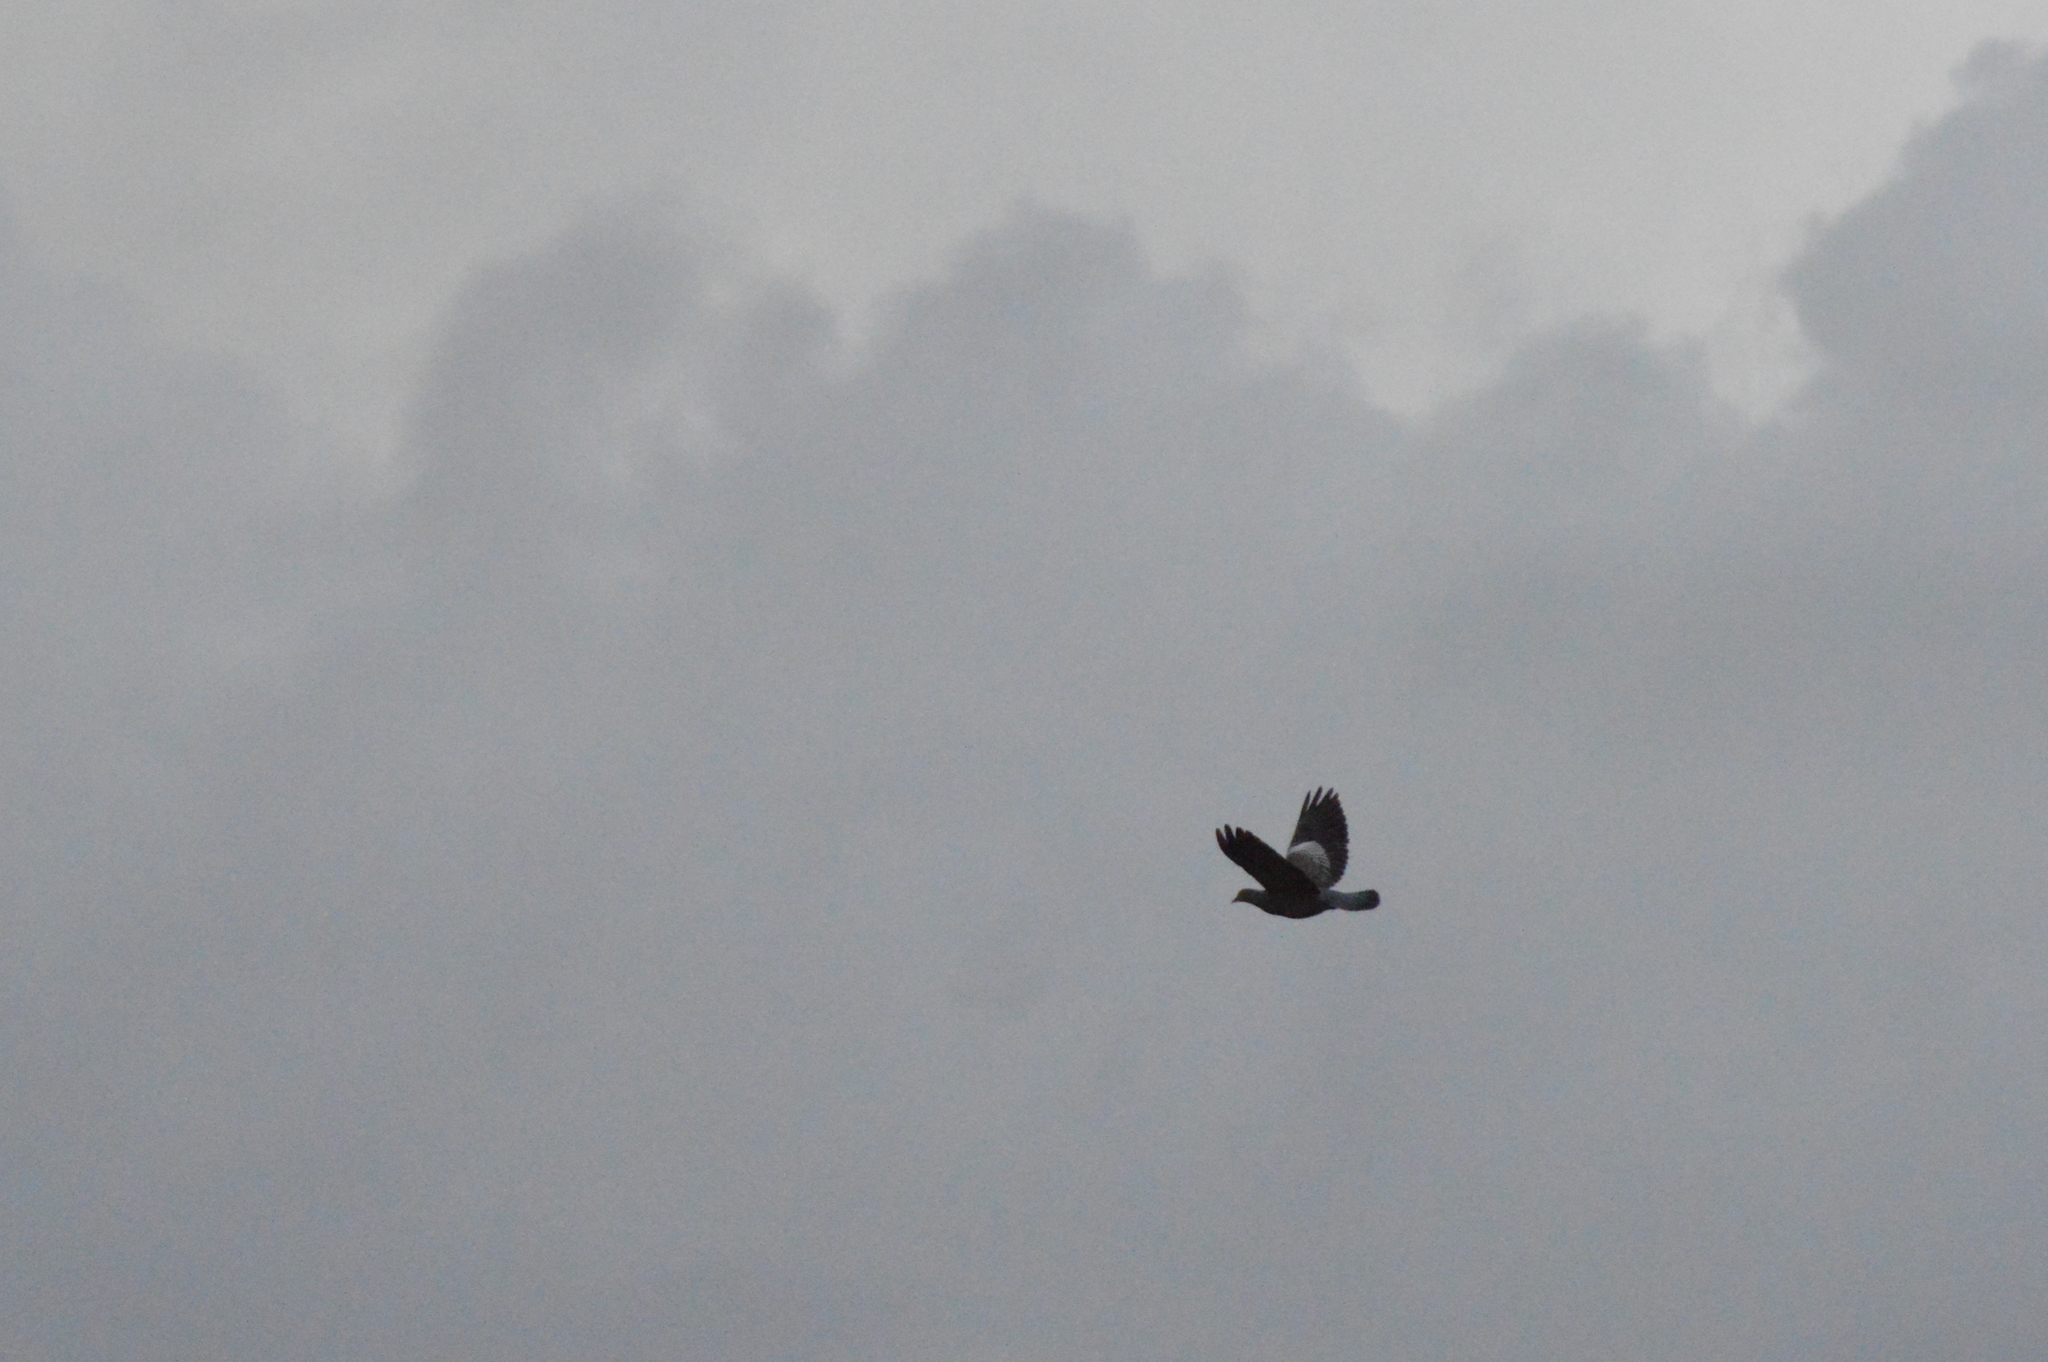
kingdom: Animalia
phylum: Chordata
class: Aves
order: Columbiformes
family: Columbidae
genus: Patagioenas
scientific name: Patagioenas picazuro
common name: Picazuro pigeon
